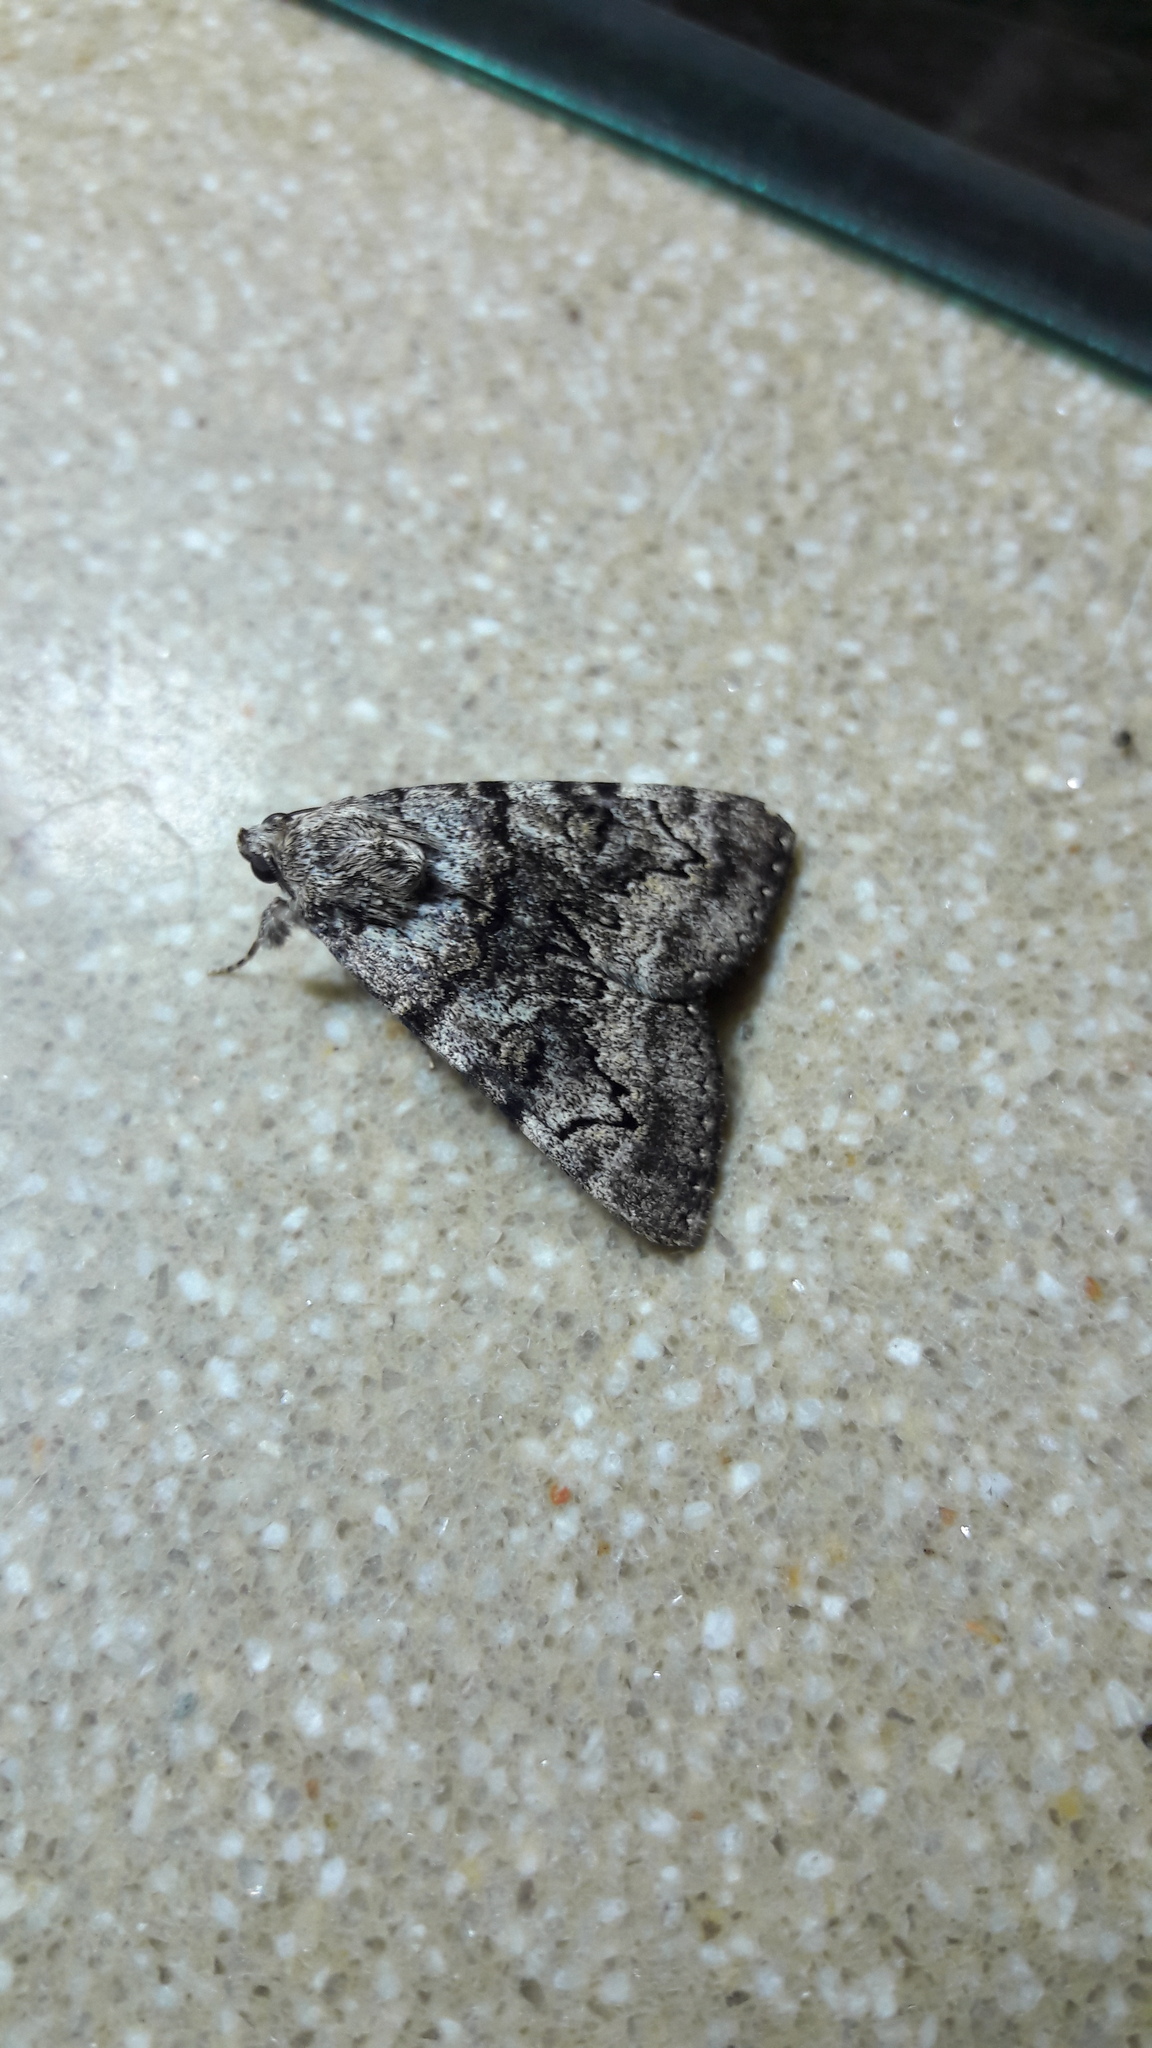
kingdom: Animalia
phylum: Arthropoda
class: Insecta
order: Lepidoptera
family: Erebidae
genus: Catocala
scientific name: Catocala nymphagoga
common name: Oak yellow underwing
